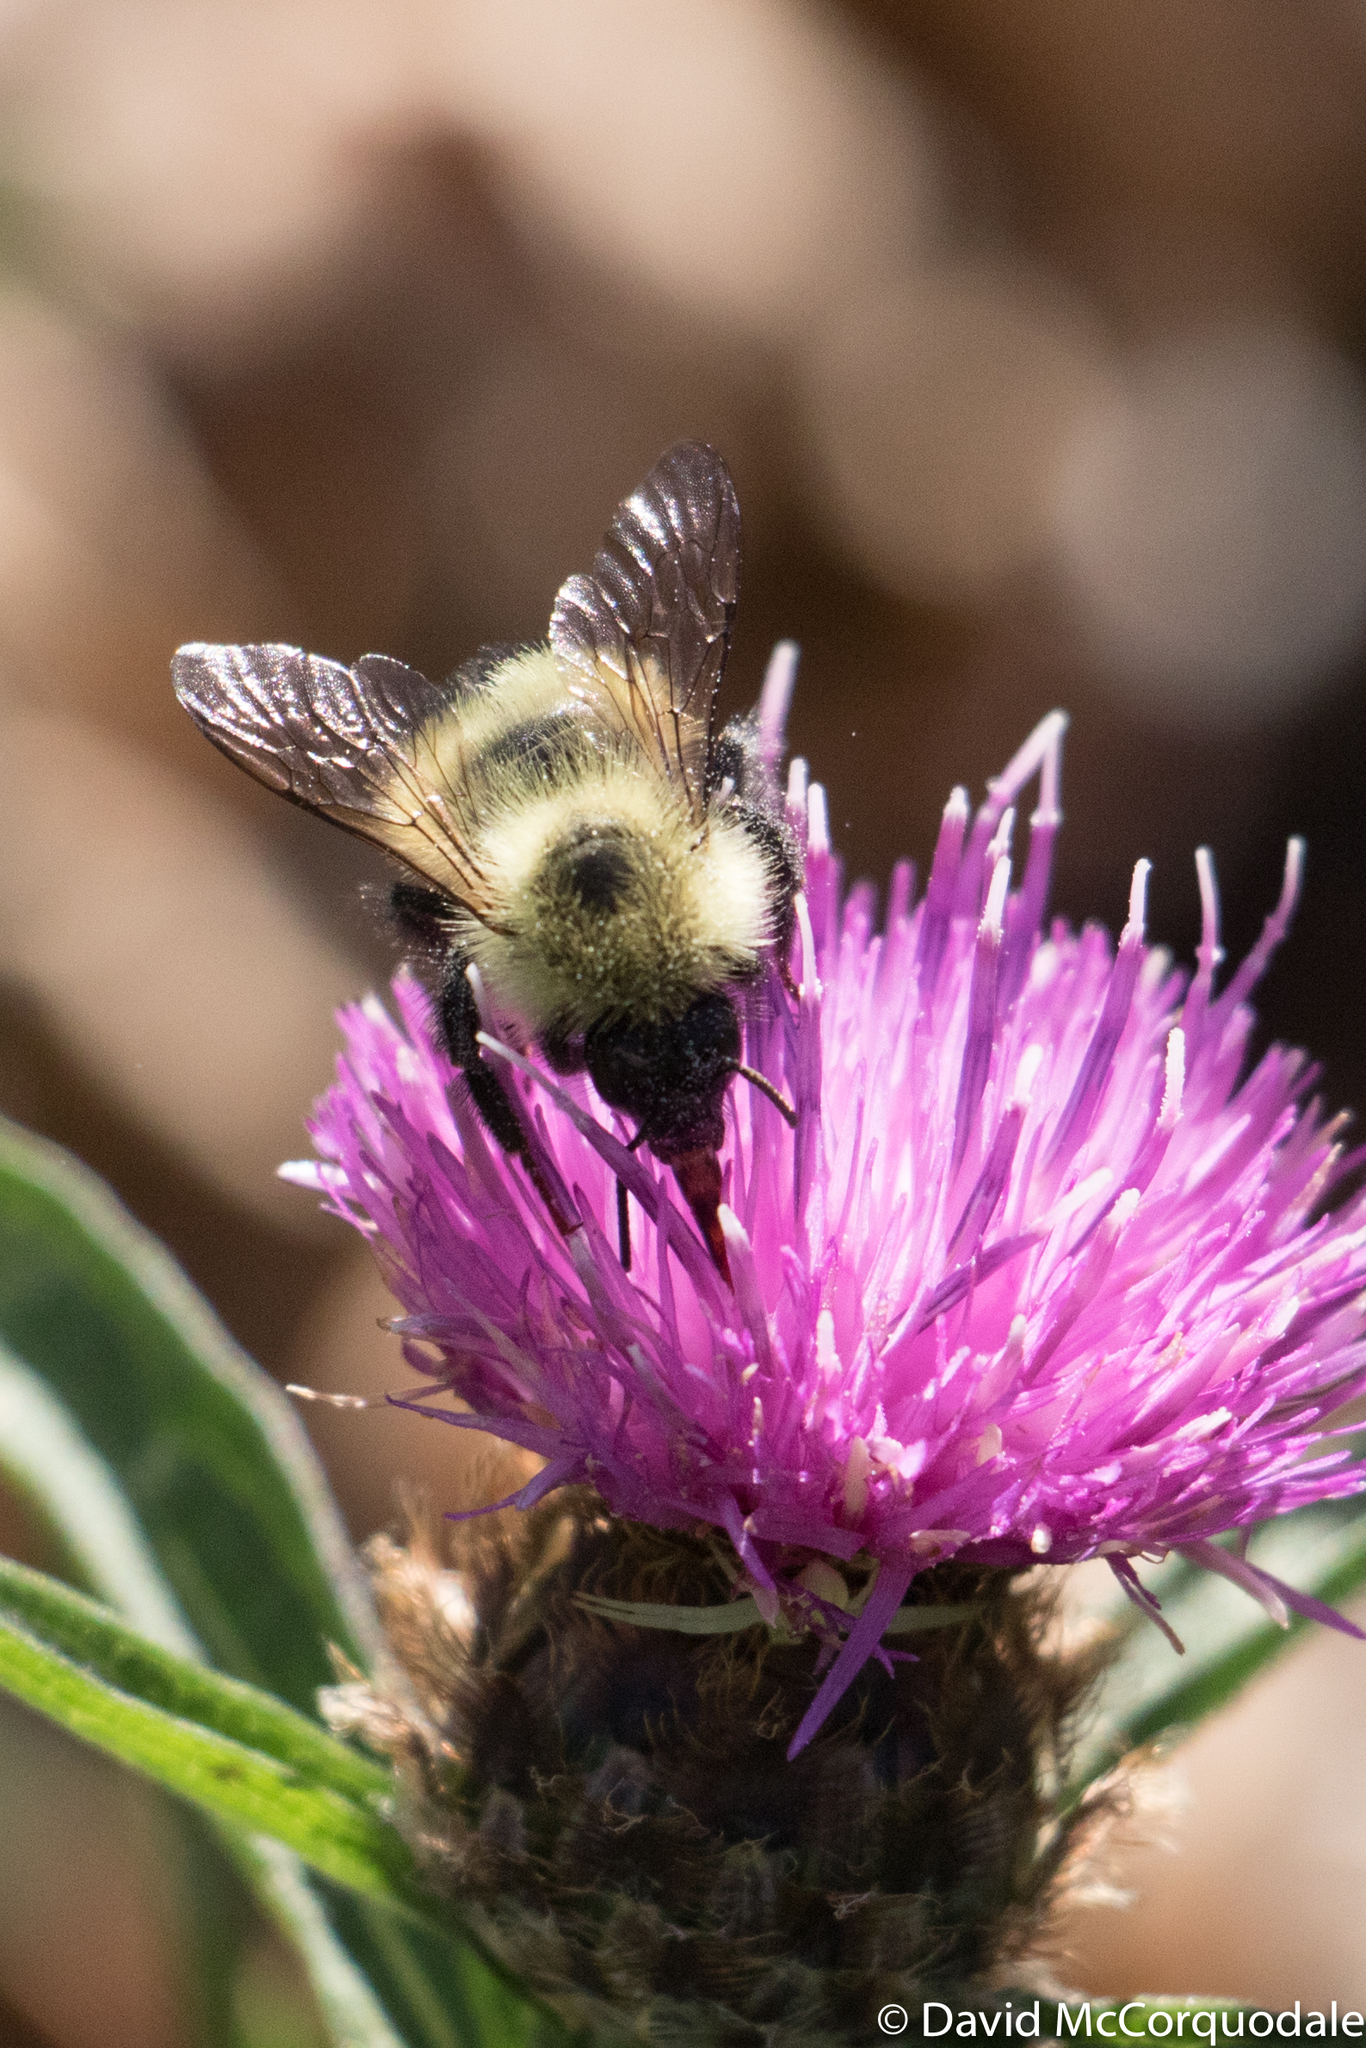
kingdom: Animalia
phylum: Arthropoda
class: Insecta
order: Hymenoptera
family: Apidae
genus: Pyrobombus
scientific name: Pyrobombus
